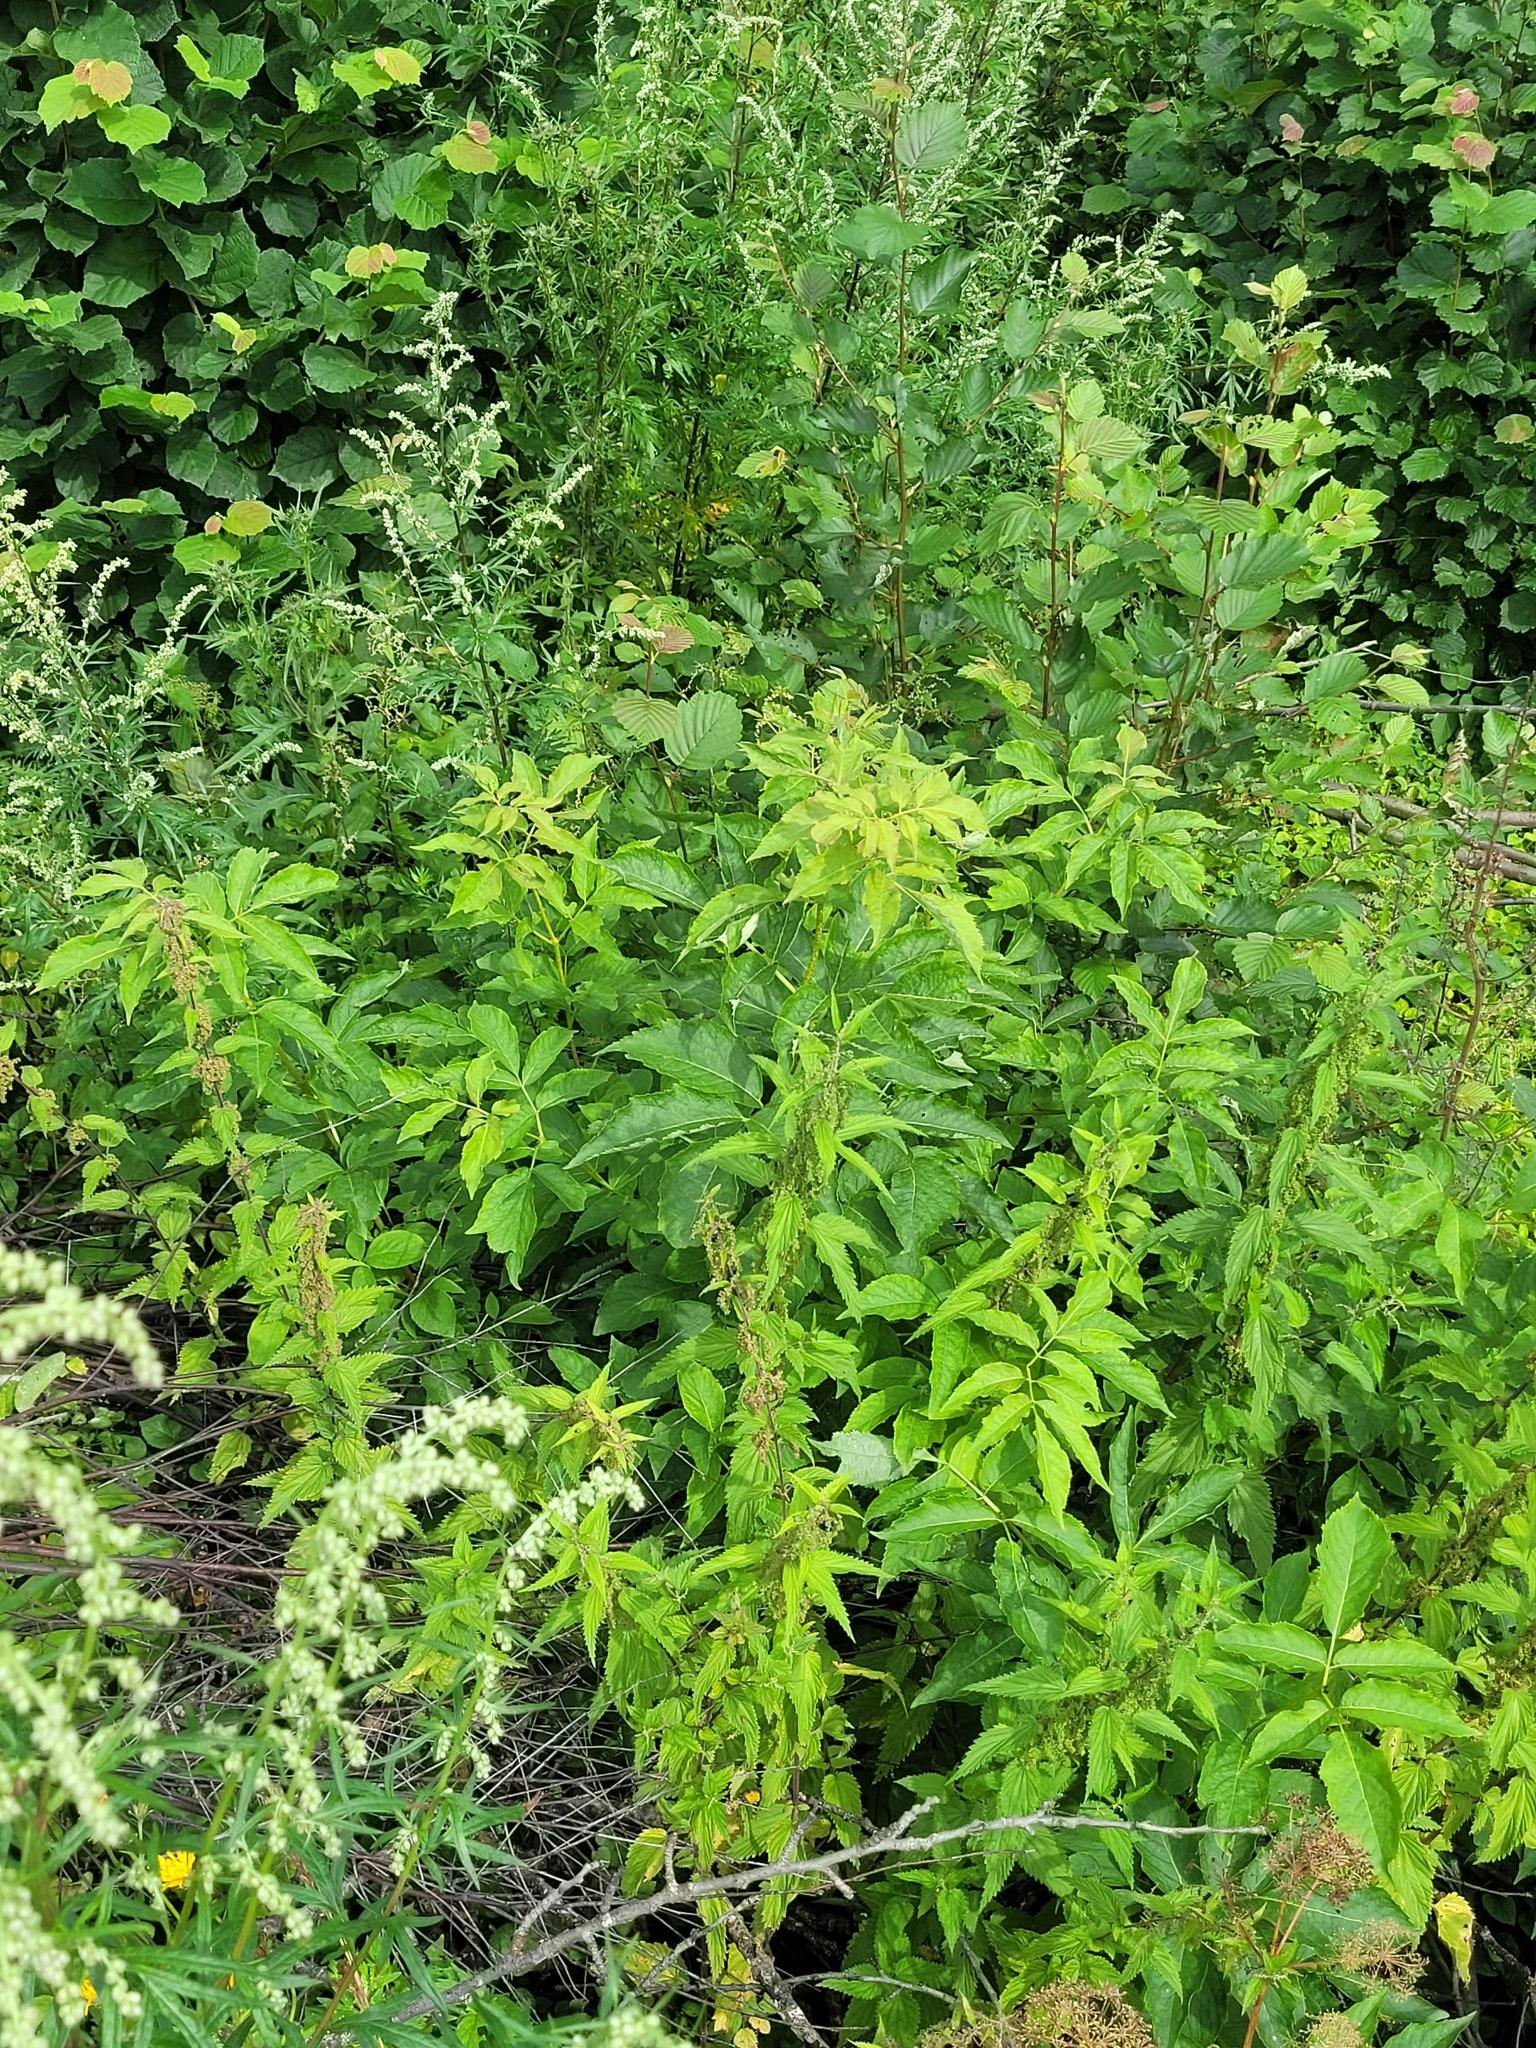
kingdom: Plantae
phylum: Tracheophyta
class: Magnoliopsida
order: Dipsacales
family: Viburnaceae
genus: Sambucus
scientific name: Sambucus racemosa
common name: Red-berried elder
